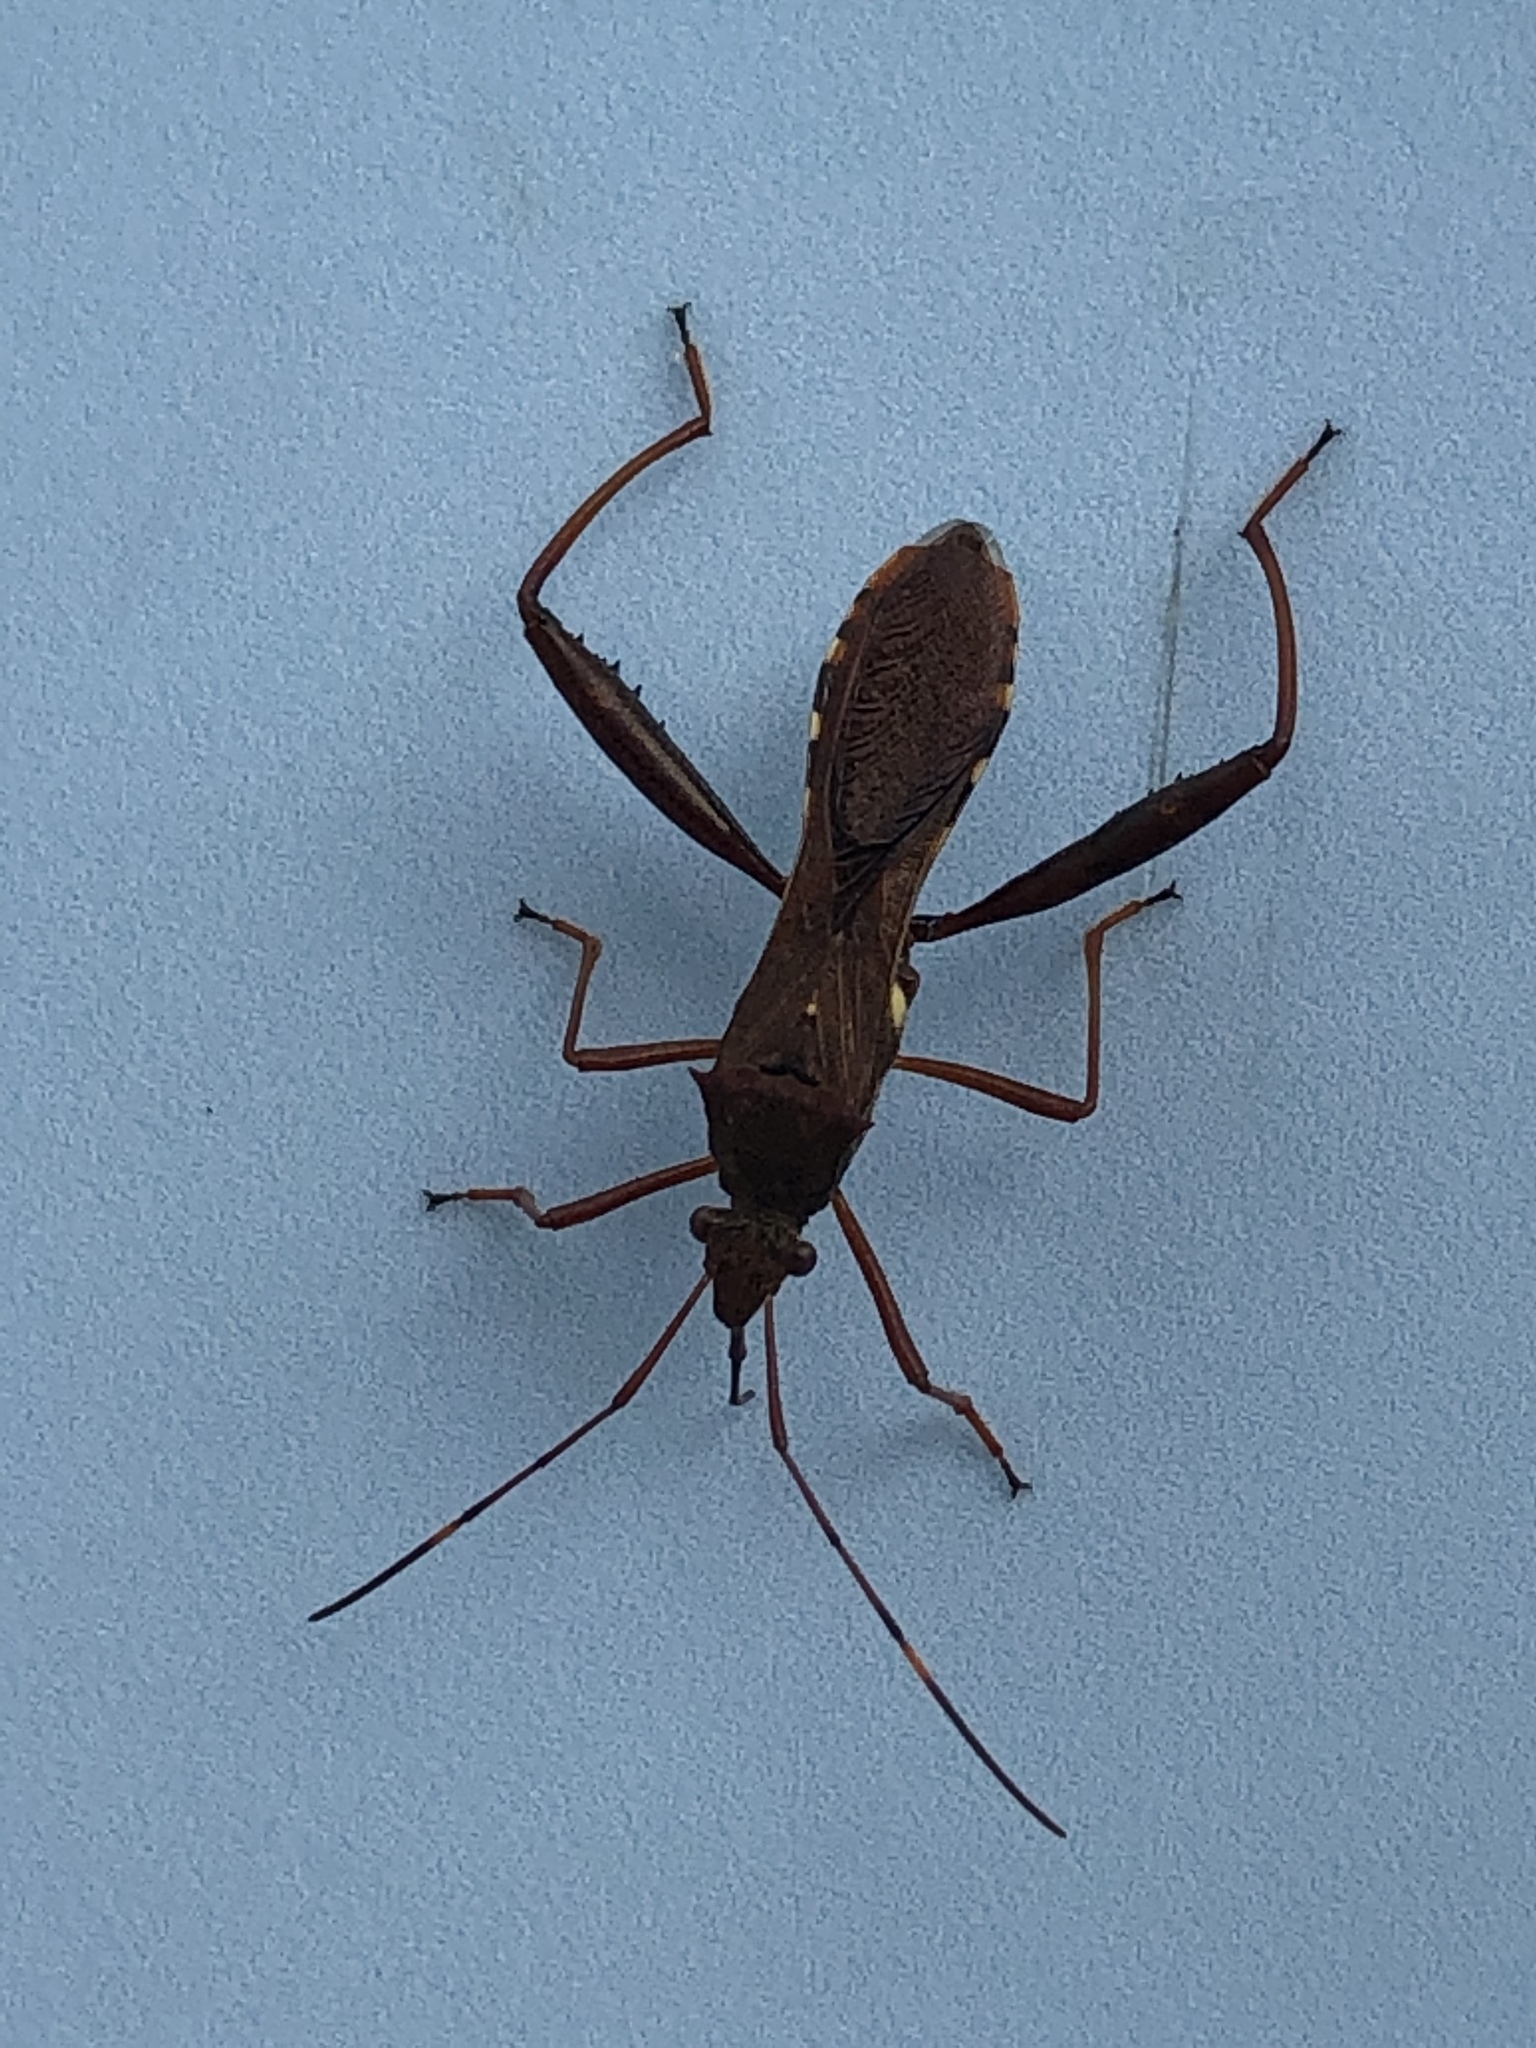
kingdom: Animalia
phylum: Arthropoda
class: Insecta
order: Hemiptera
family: Alydidae
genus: Riptortus
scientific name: Riptortus pedestris
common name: Bean bug
